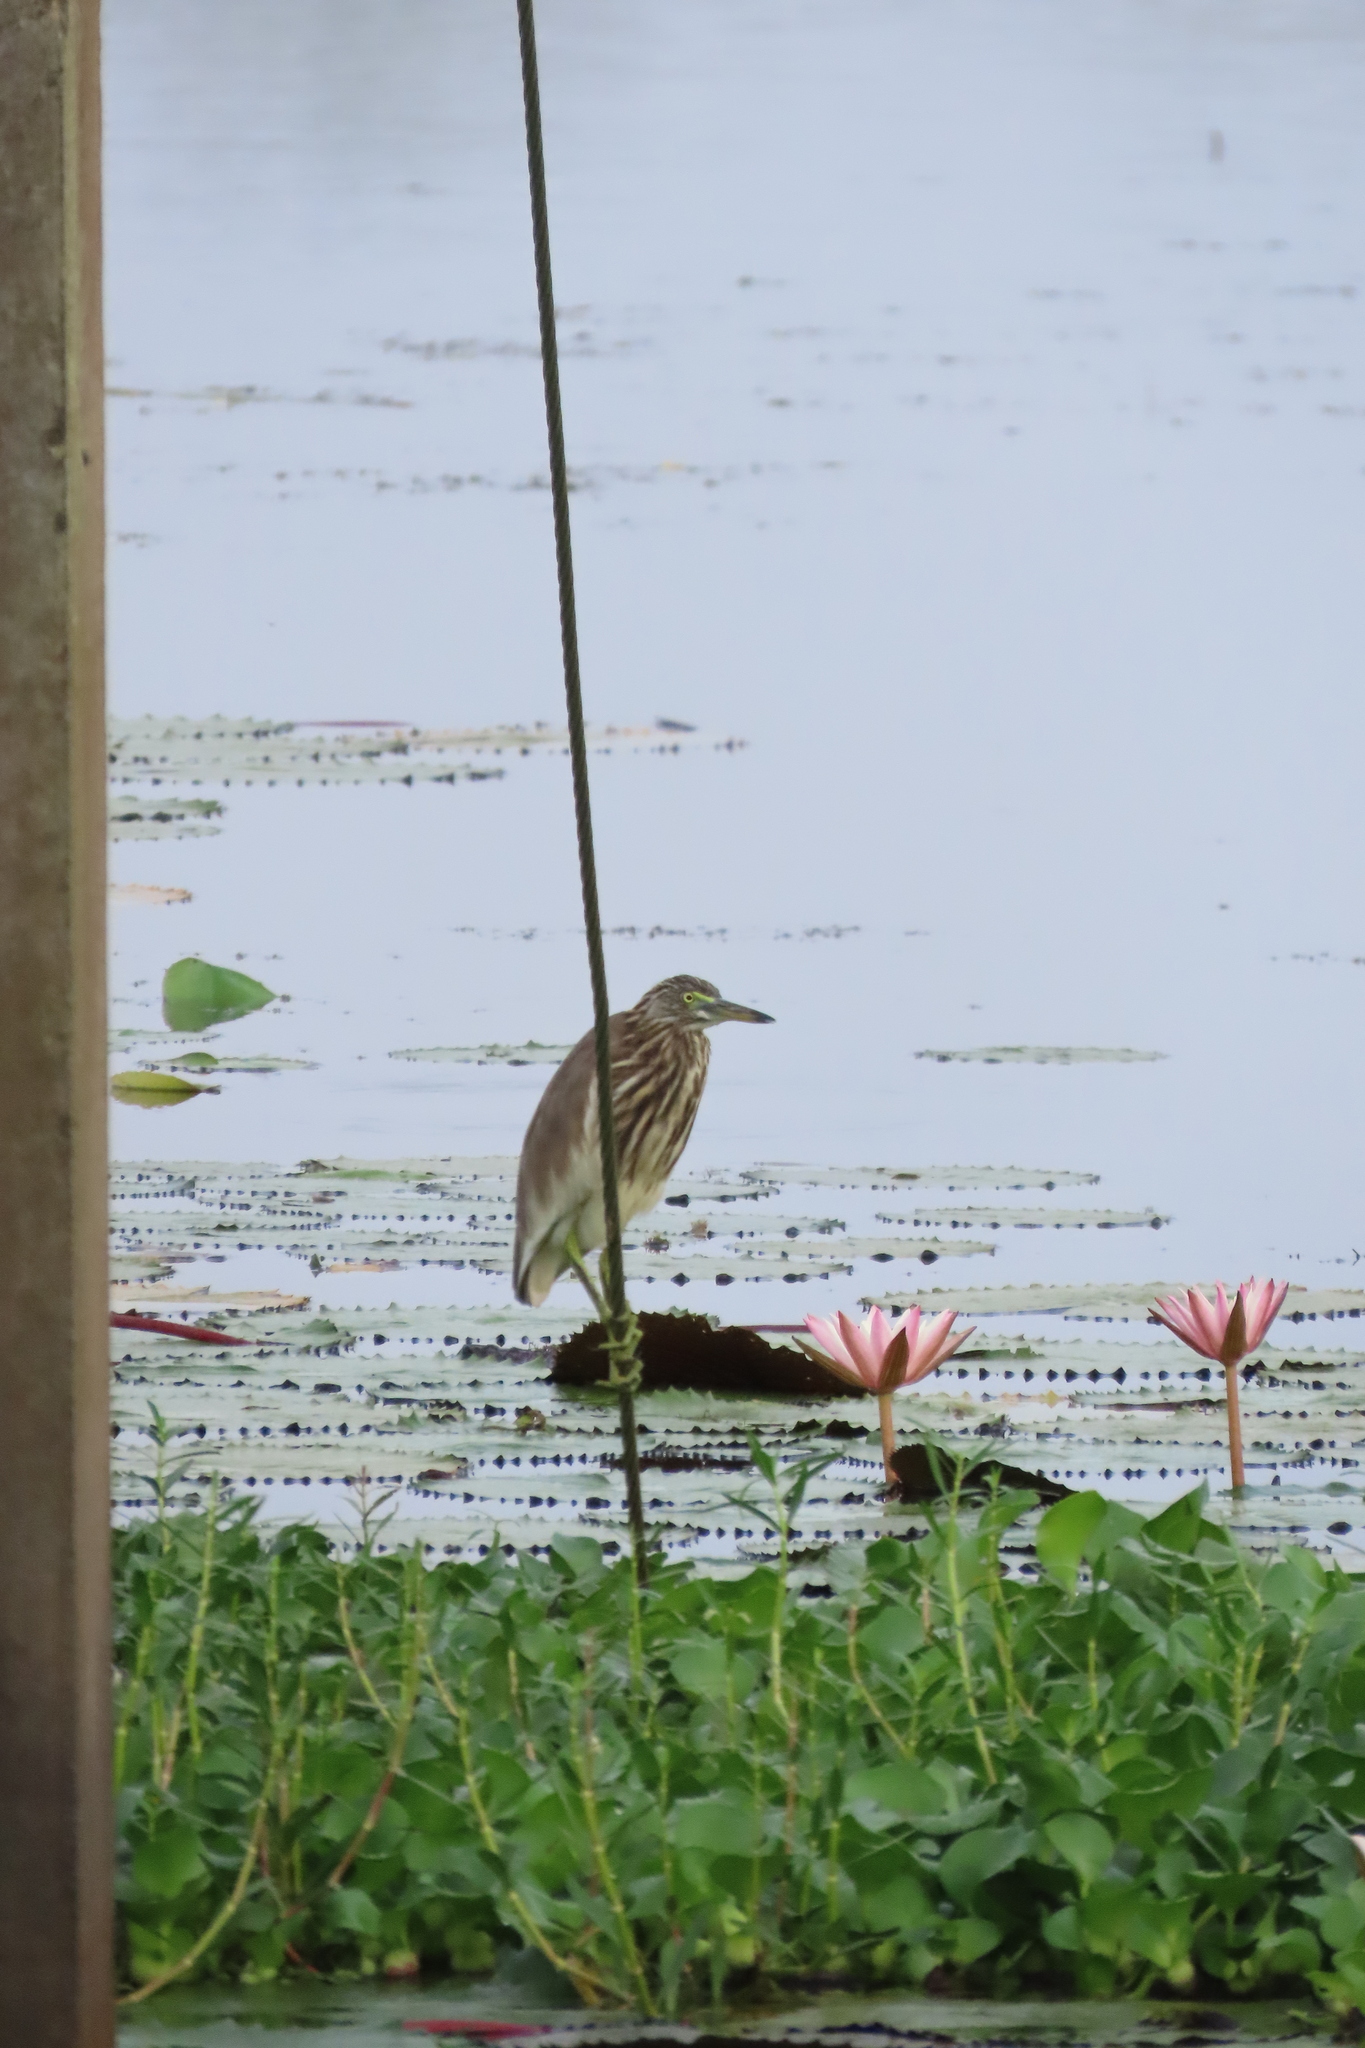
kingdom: Animalia
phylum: Chordata
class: Aves
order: Pelecaniformes
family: Ardeidae
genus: Ardeola
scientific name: Ardeola grayii
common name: Indian pond heron
